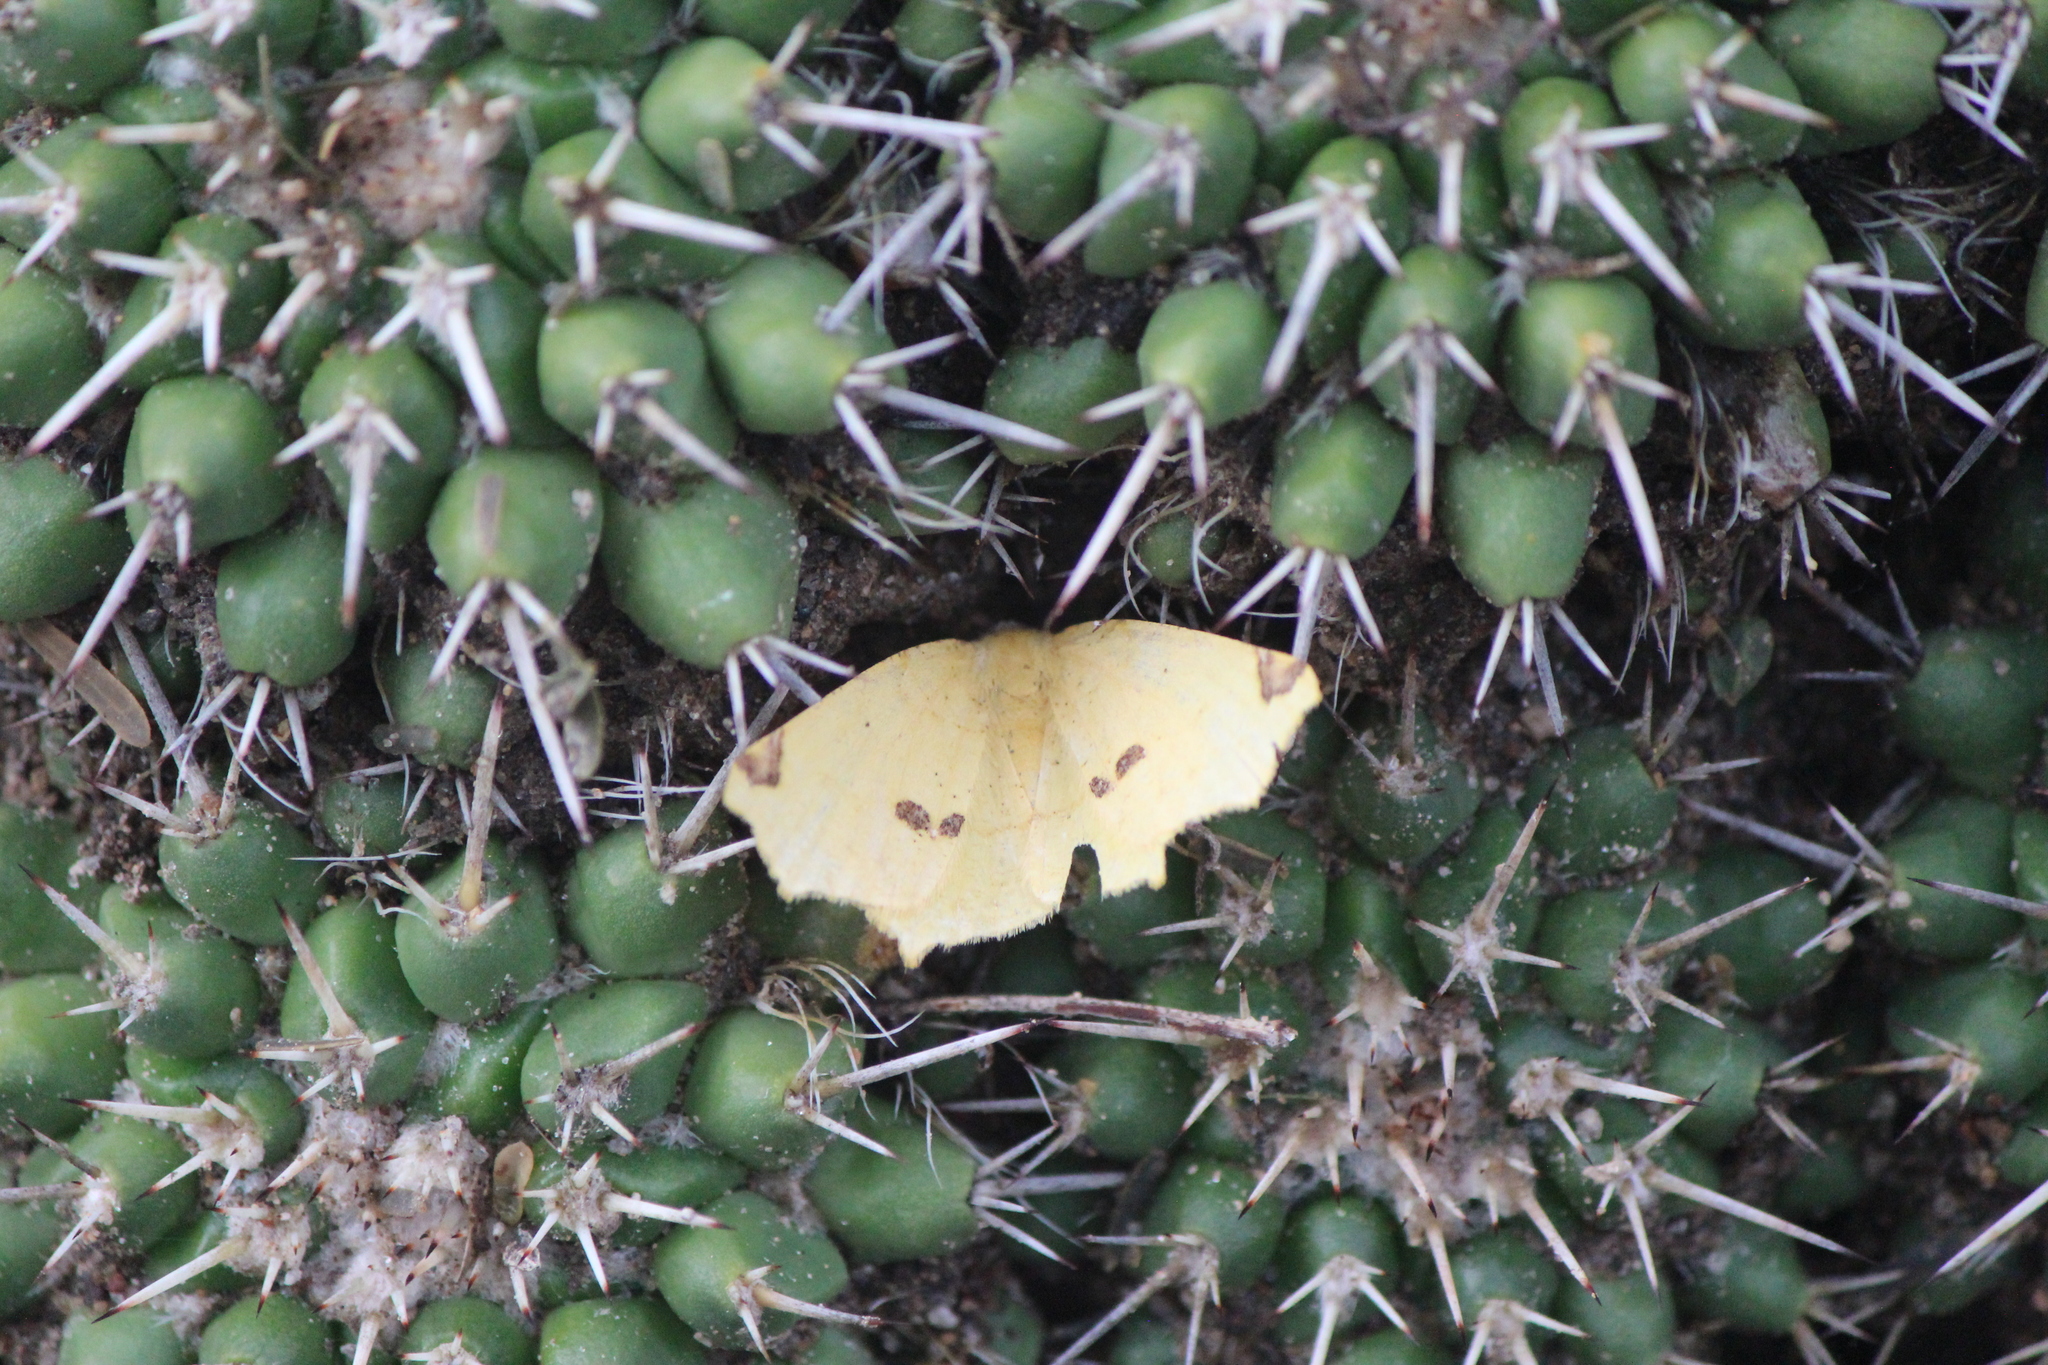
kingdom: Animalia
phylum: Arthropoda
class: Insecta
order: Lepidoptera
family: Geometridae
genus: Antepione
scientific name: Antepione thisoaria
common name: Variable antipione
